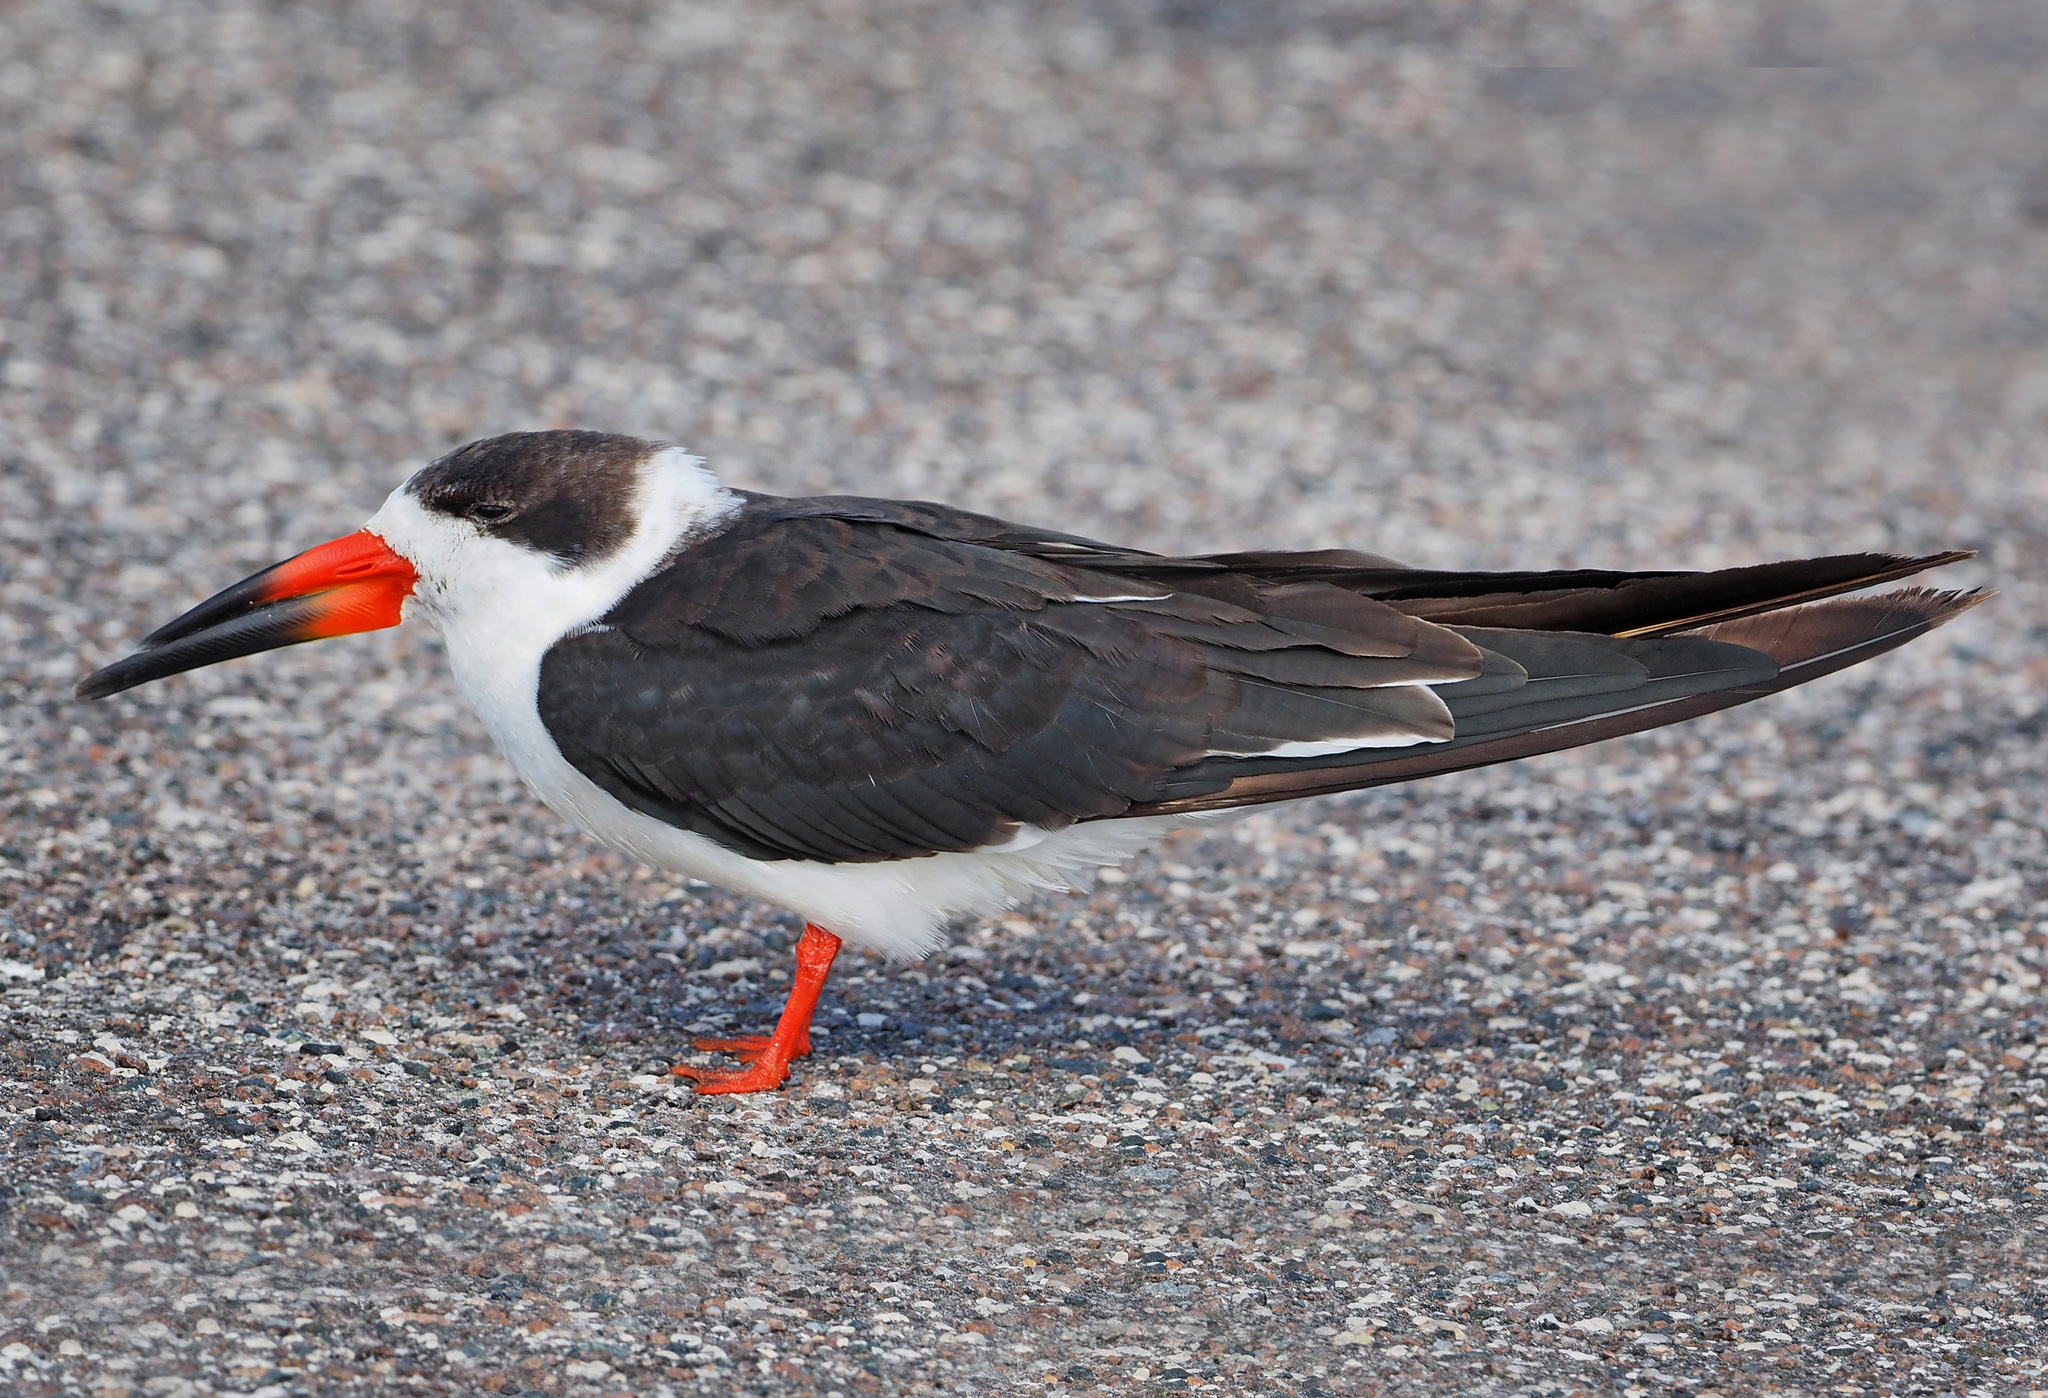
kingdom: Animalia
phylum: Chordata
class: Aves
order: Charadriiformes
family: Laridae
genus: Rynchops
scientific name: Rynchops niger
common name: Black skimmer
